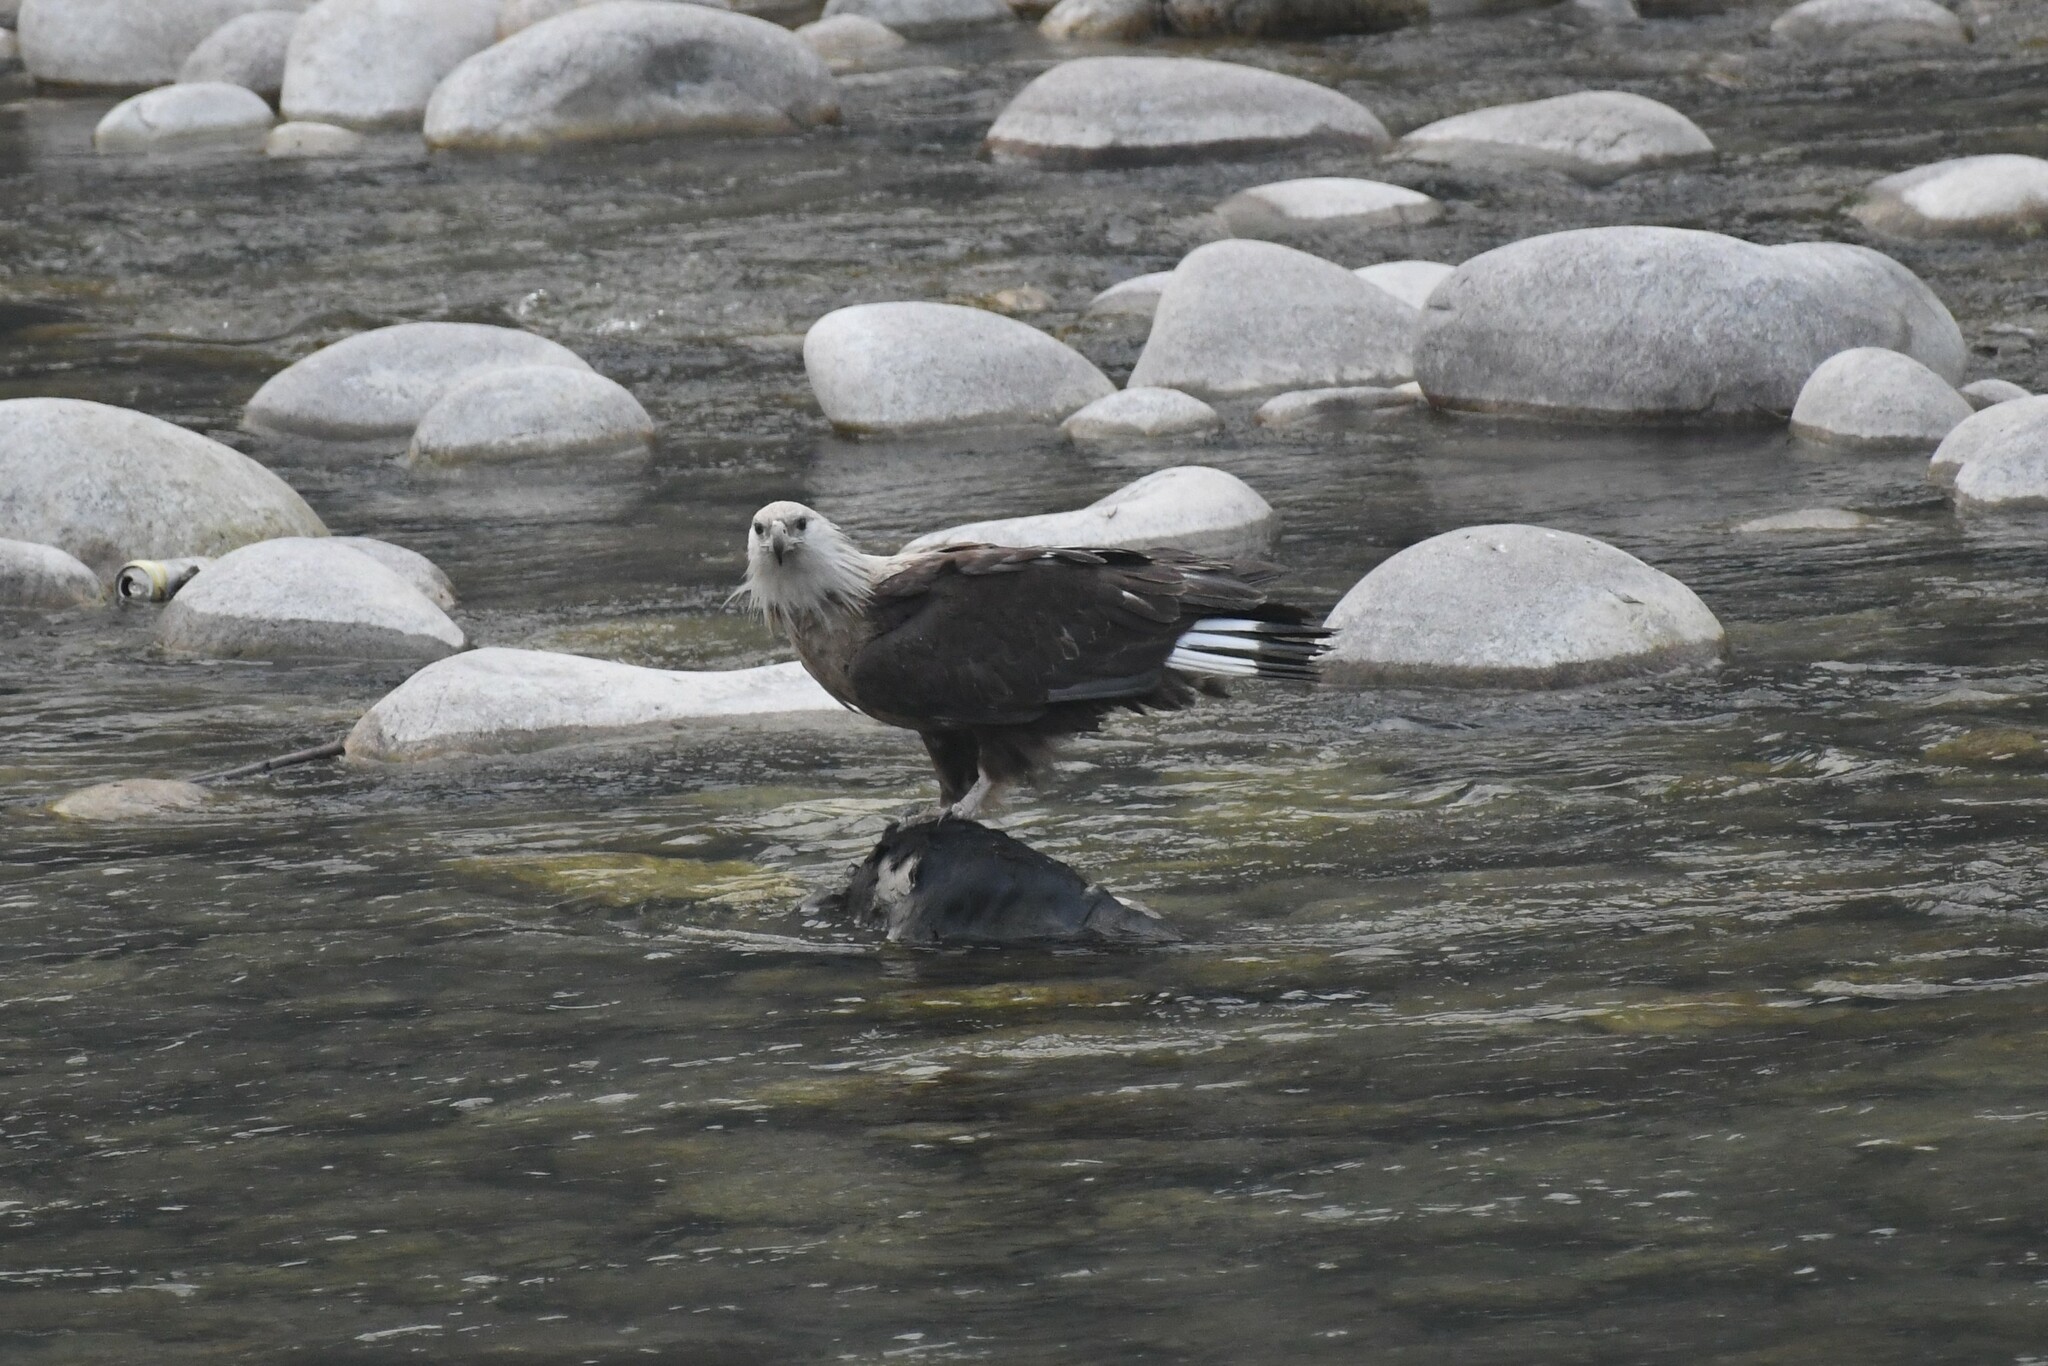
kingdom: Animalia
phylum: Chordata
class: Aves
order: Accipitriformes
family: Accipitridae
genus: Haliaeetus
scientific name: Haliaeetus leucoryphus
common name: Pallas's fish eagle
